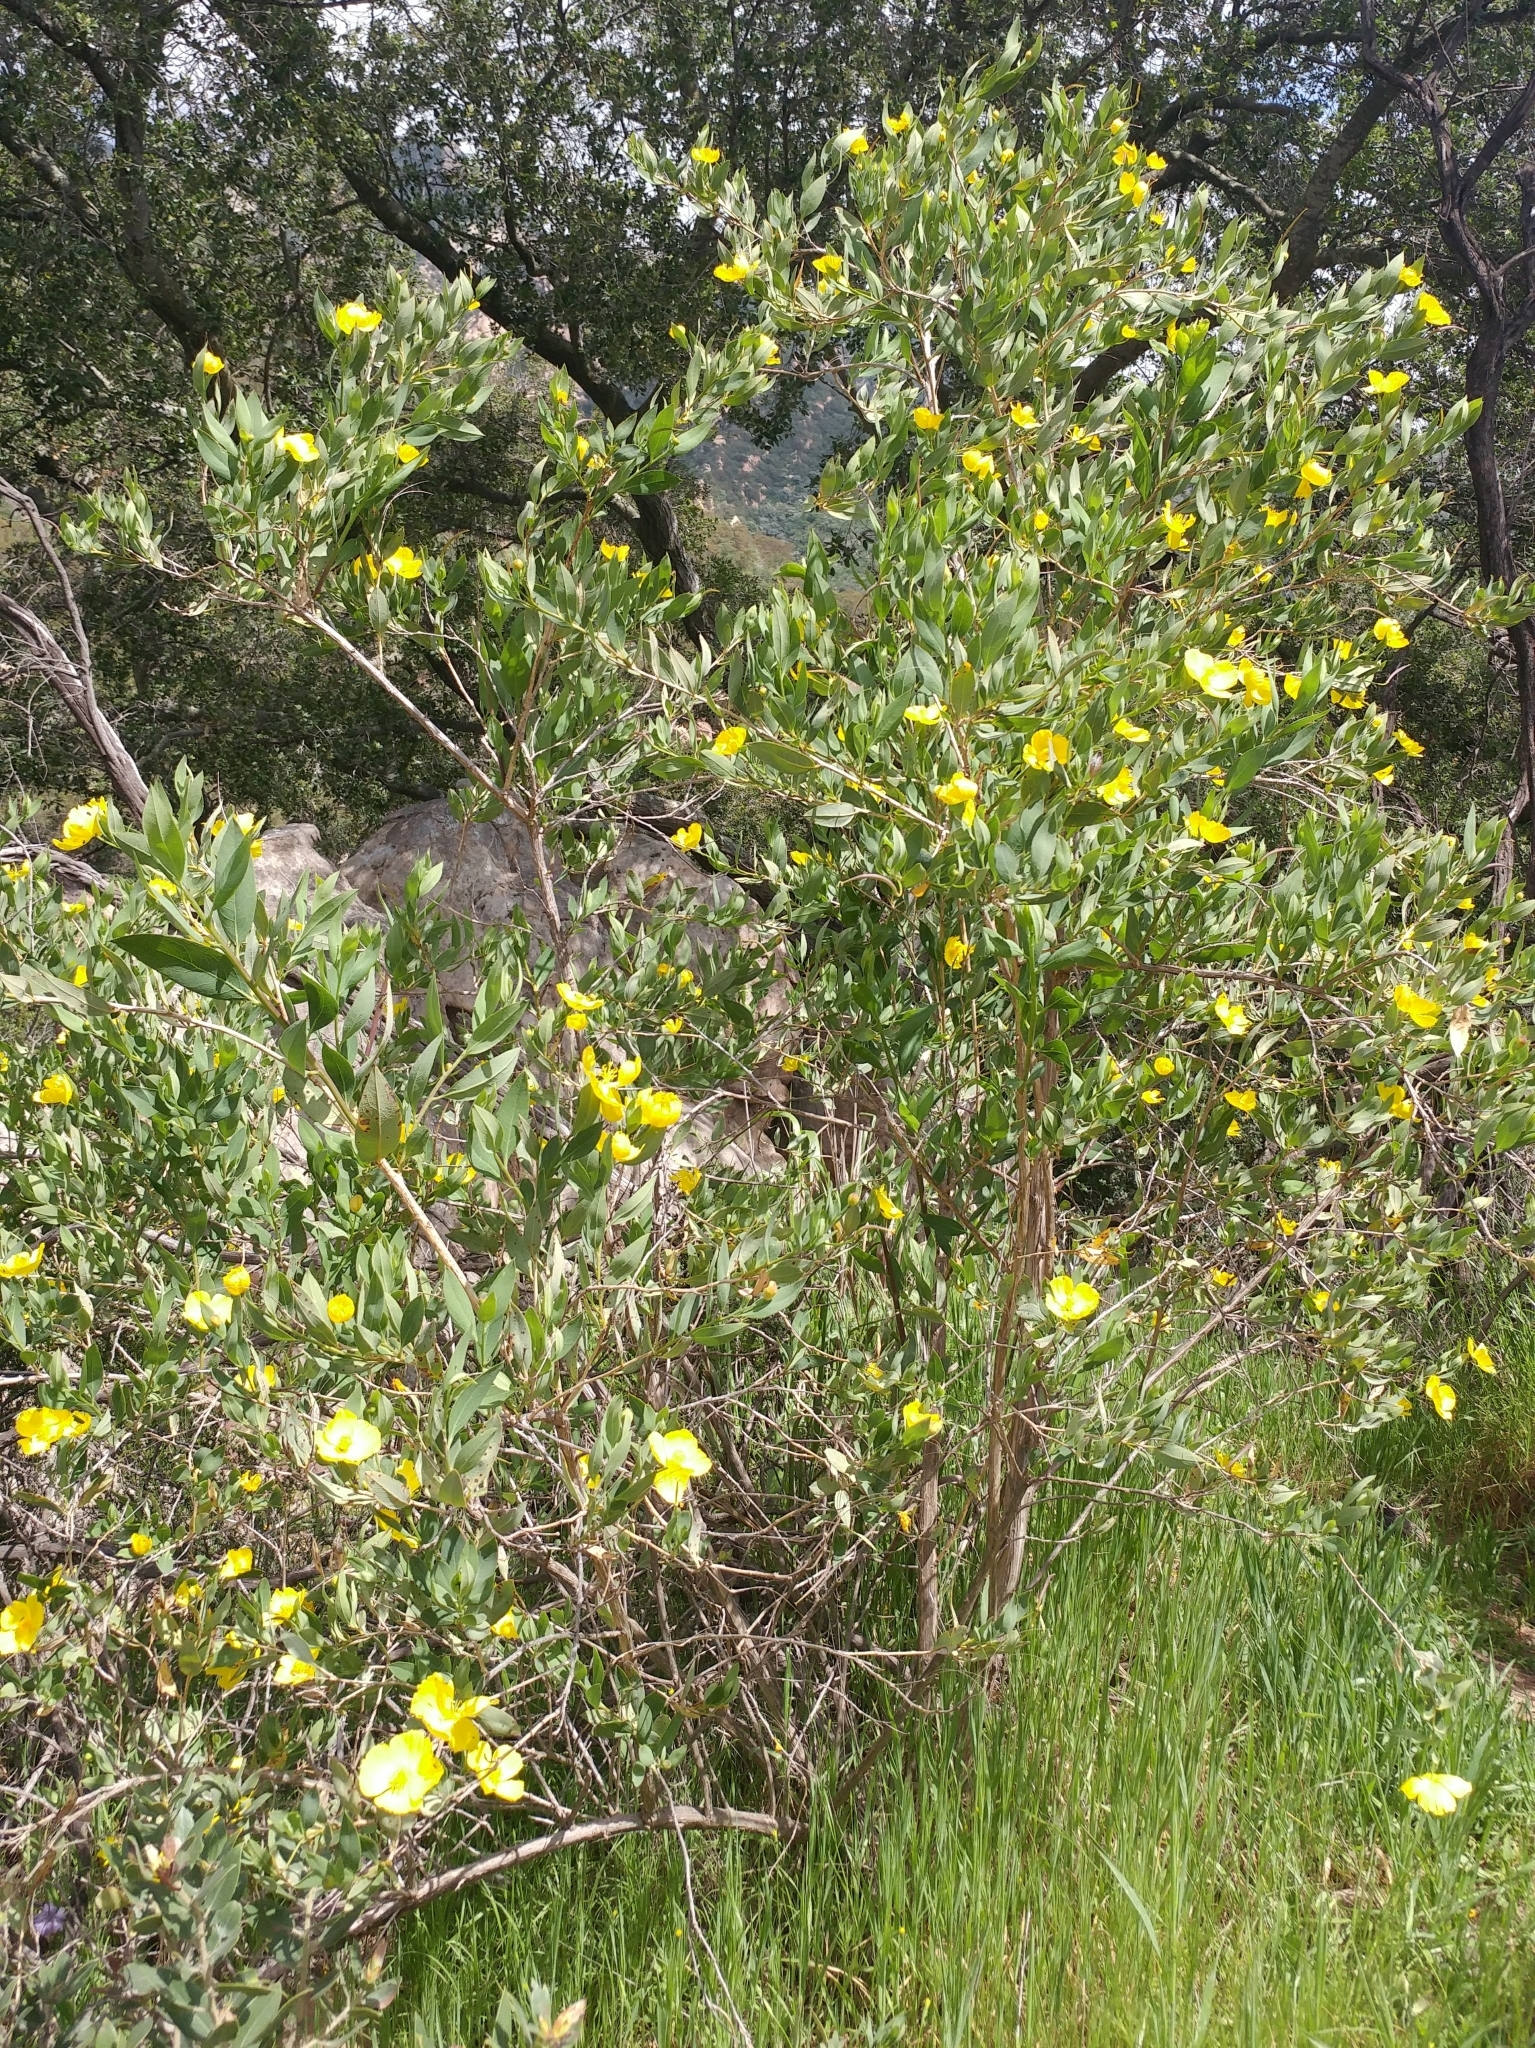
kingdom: Plantae
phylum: Tracheophyta
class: Magnoliopsida
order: Ranunculales
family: Papaveraceae
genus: Dendromecon
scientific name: Dendromecon rigida
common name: Tree poppy
